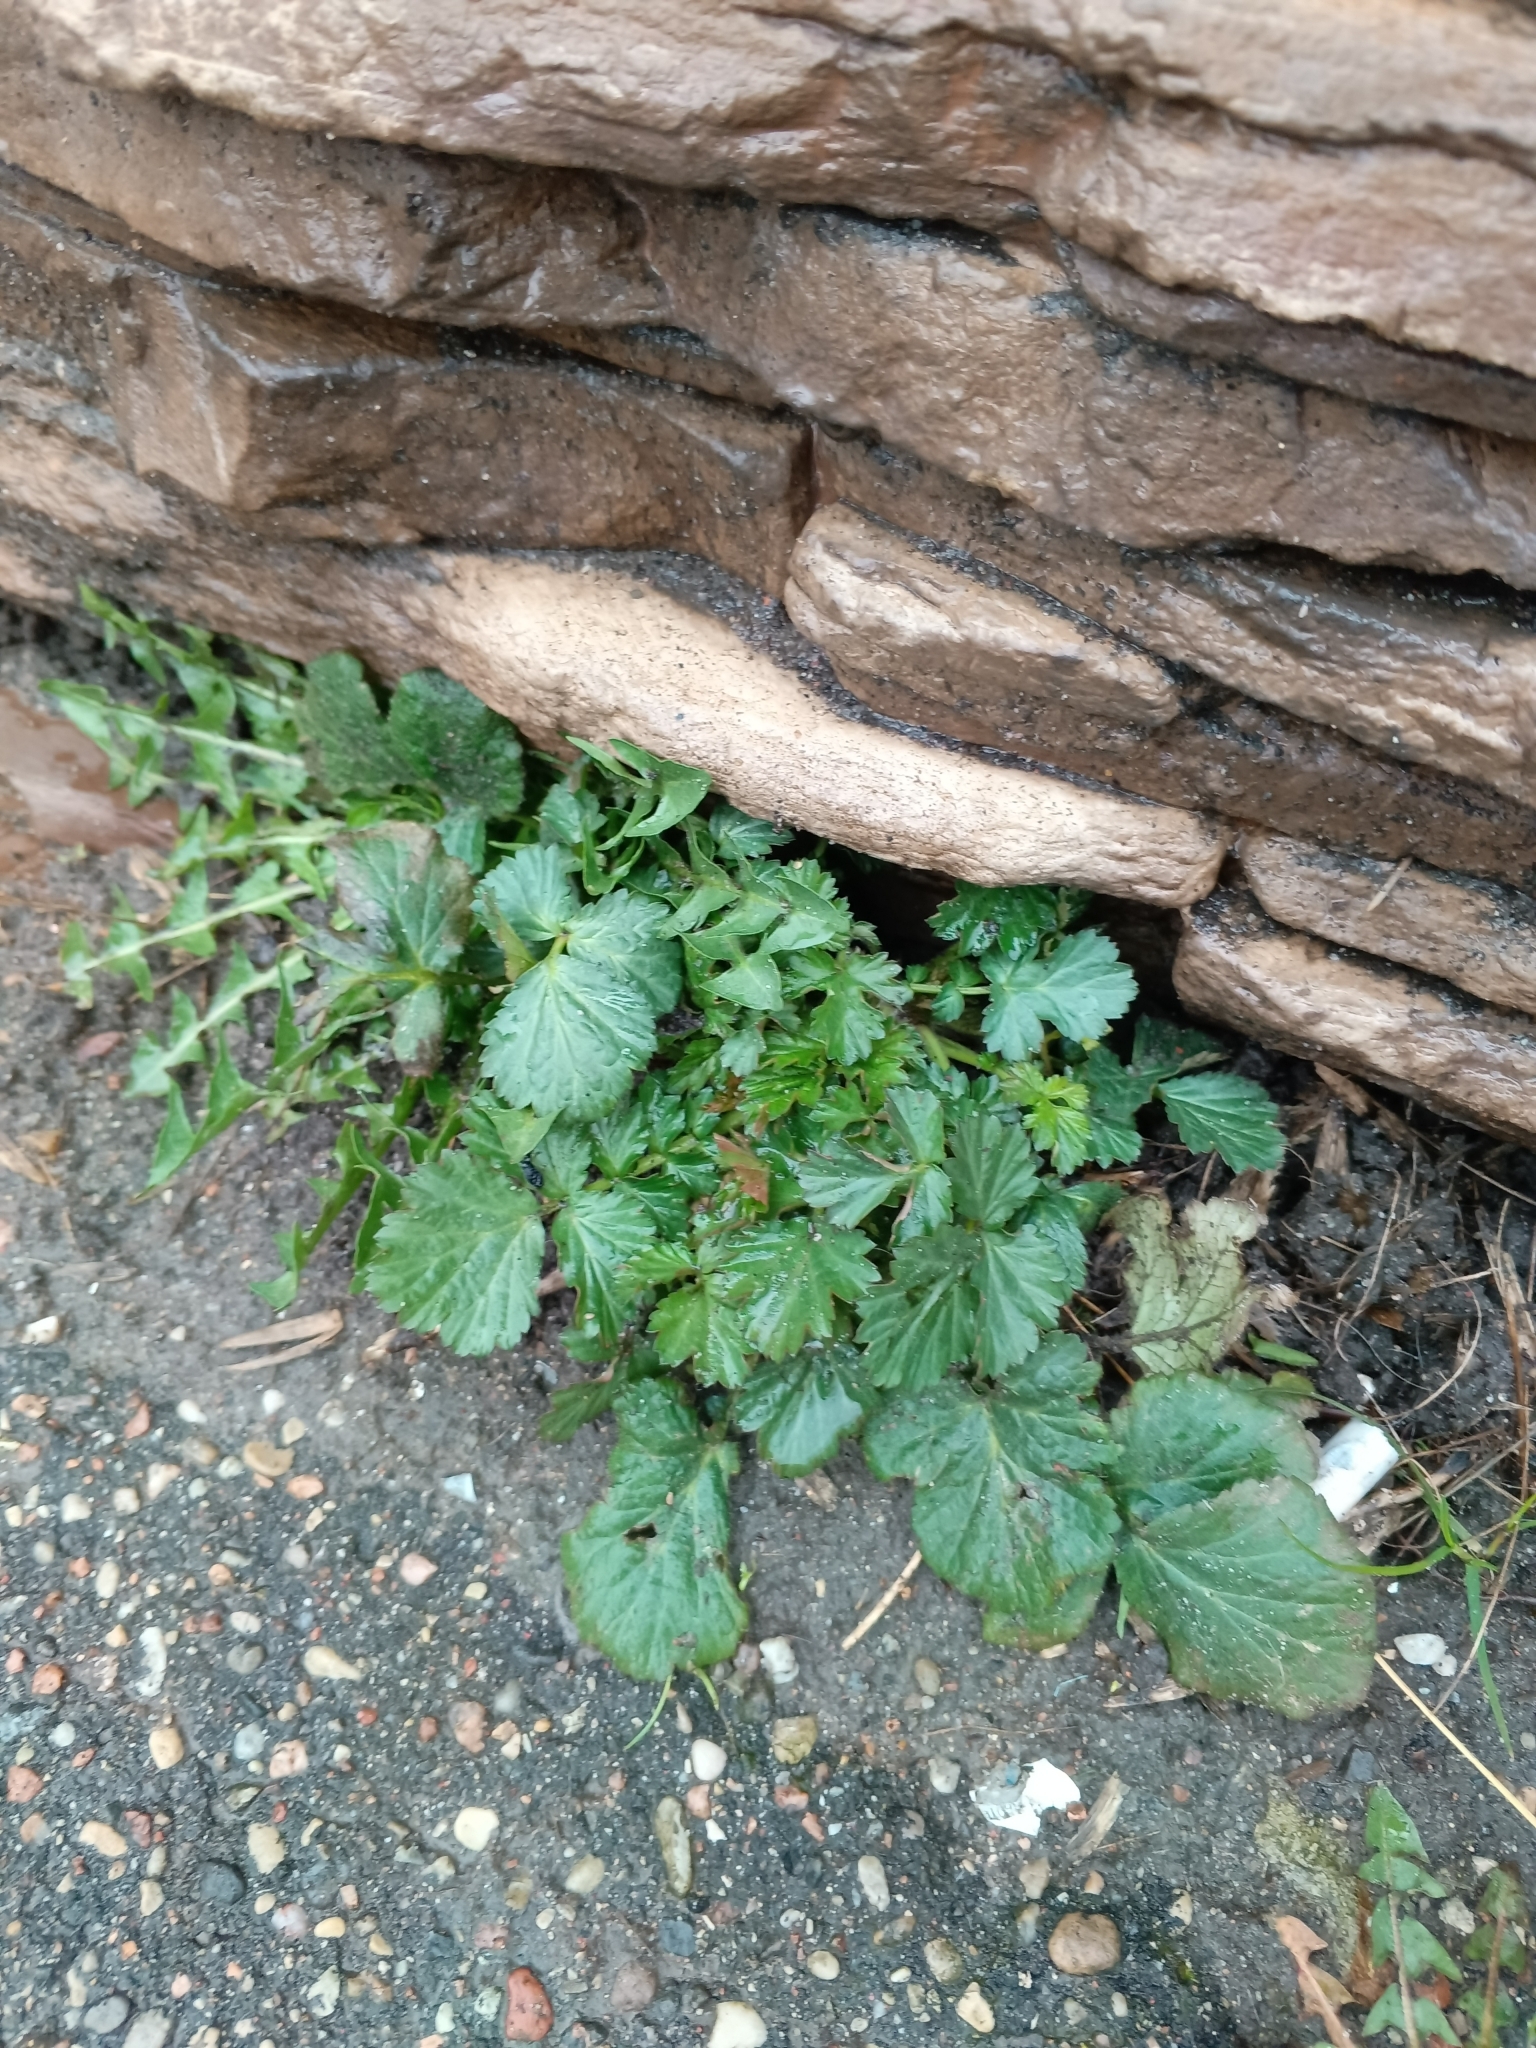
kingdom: Plantae
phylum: Tracheophyta
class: Magnoliopsida
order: Rosales
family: Rosaceae
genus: Geum
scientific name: Geum urbanum
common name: Wood avens
